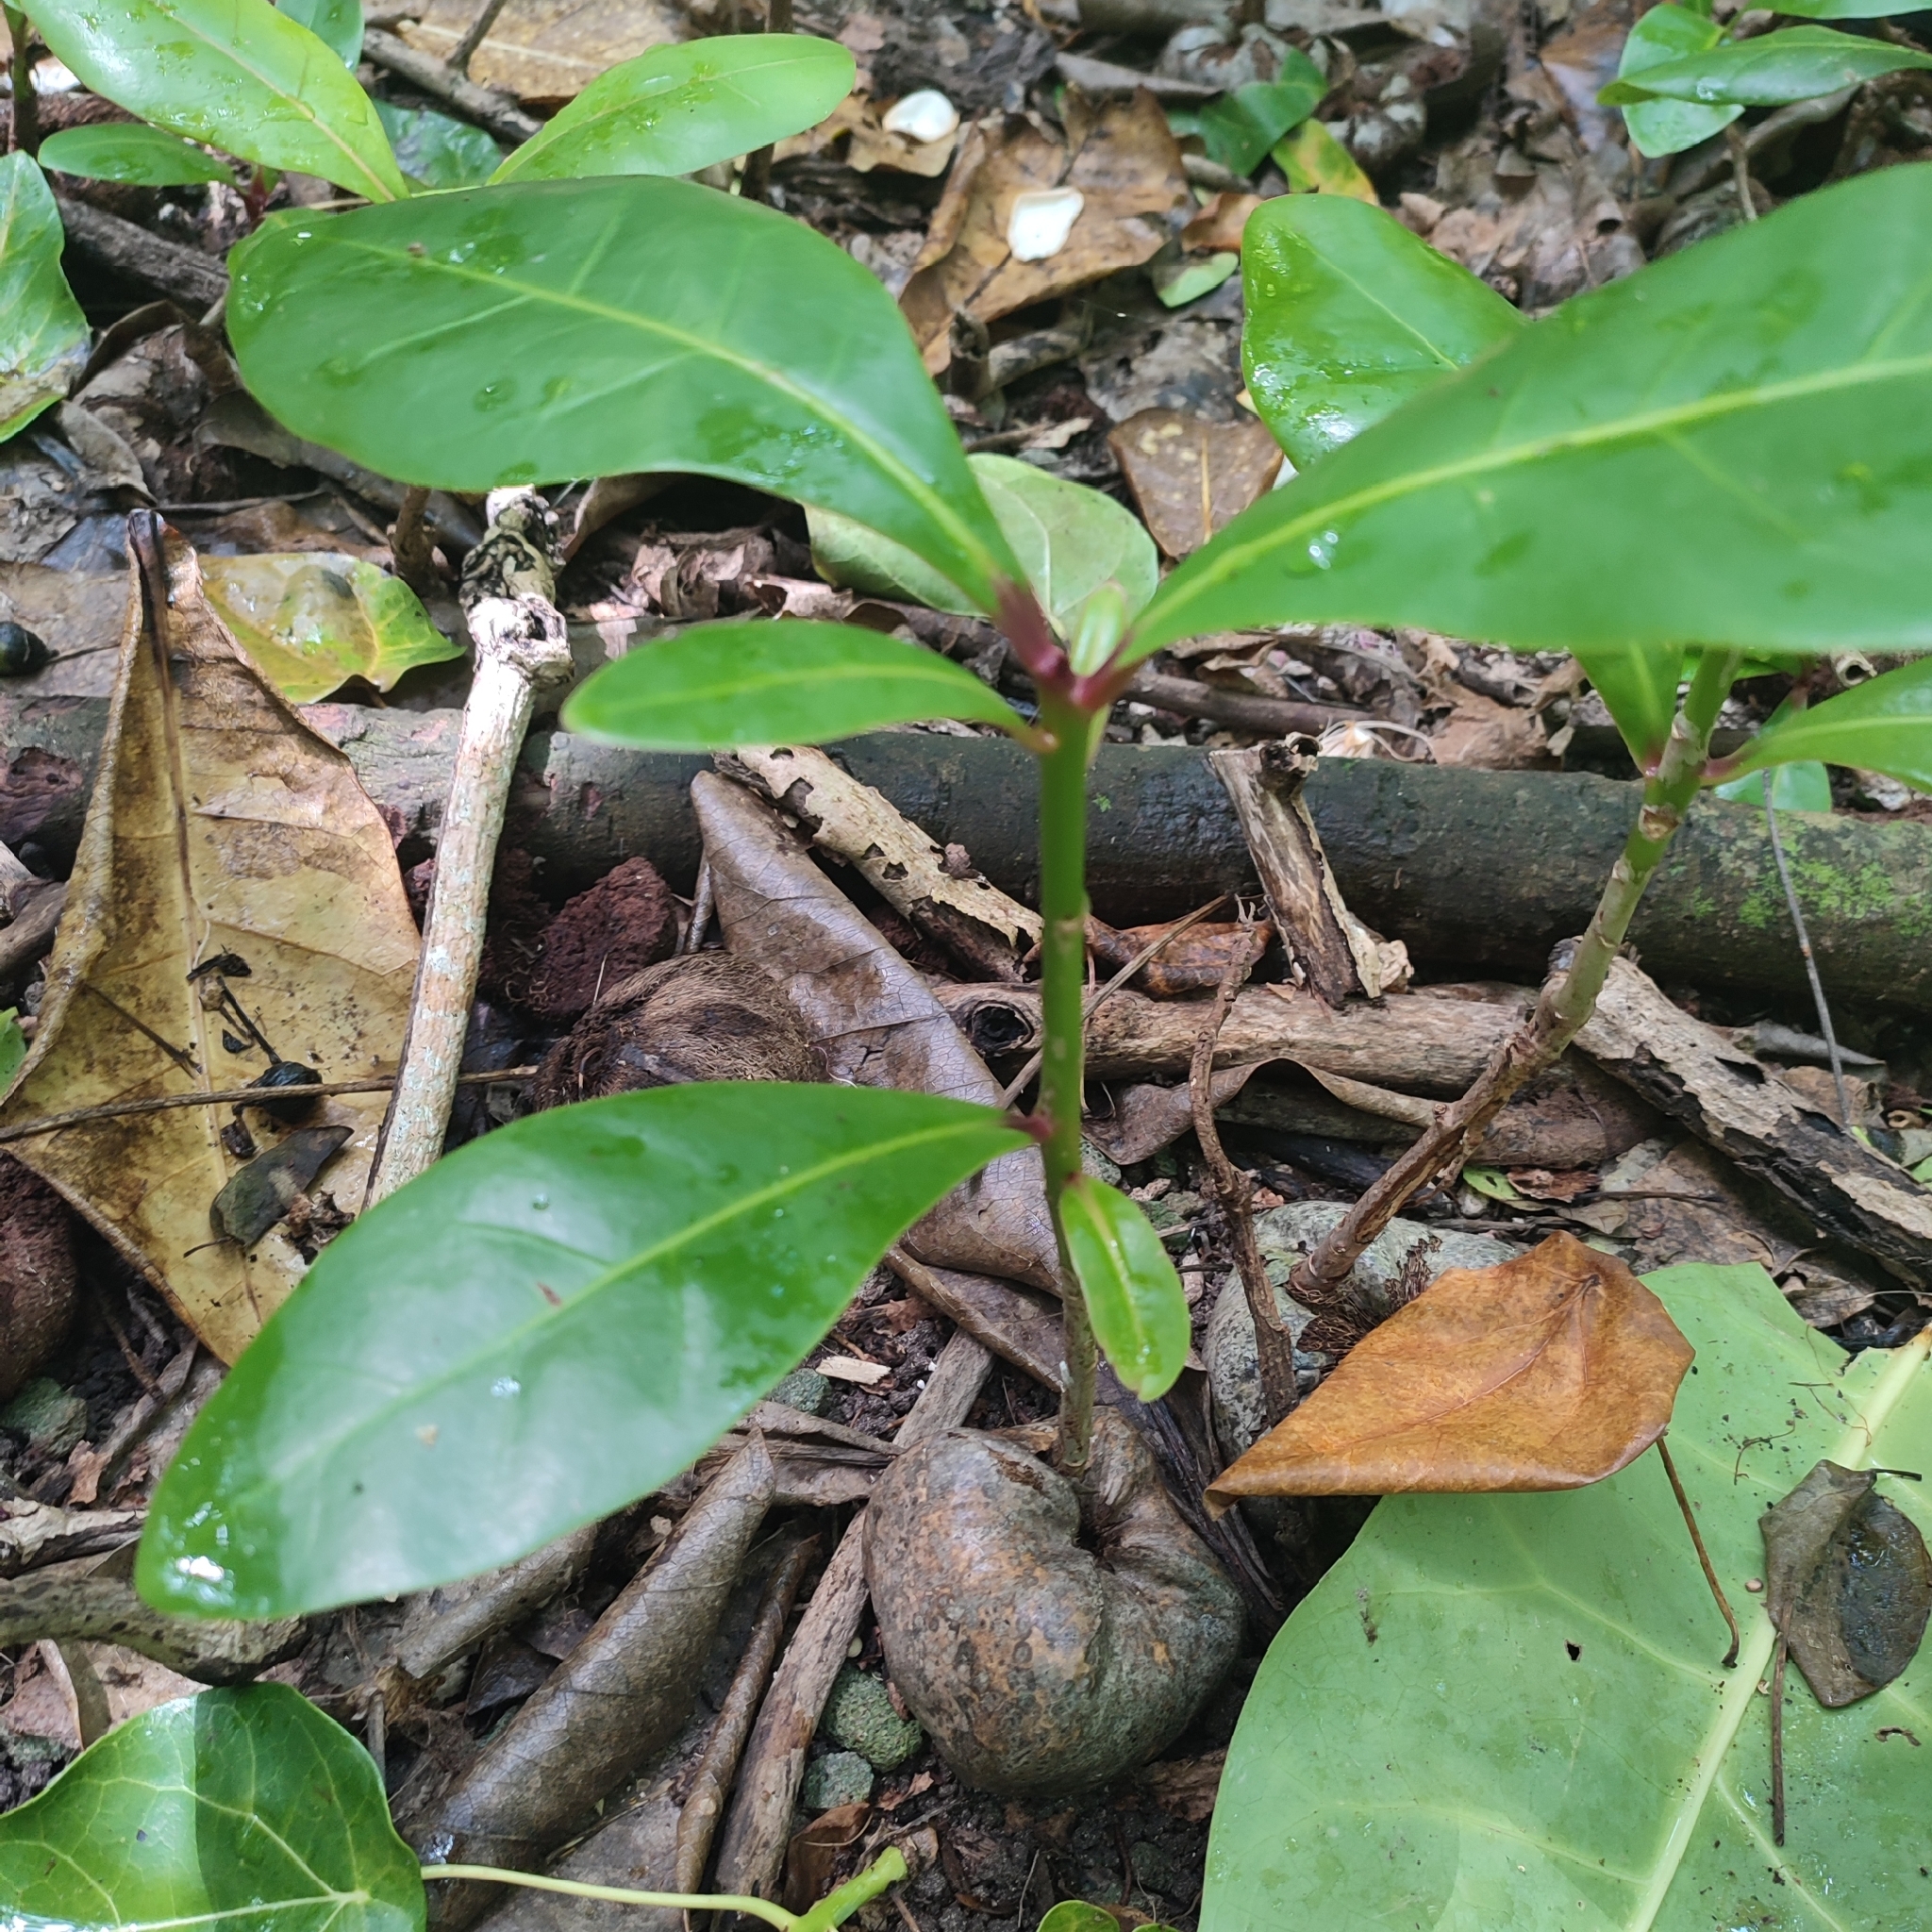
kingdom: Plantae
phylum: Tracheophyta
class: Magnoliopsida
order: Ericales
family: Lecythidaceae
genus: Barringtonia
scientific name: Barringtonia asiatica
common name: Mango-pine
